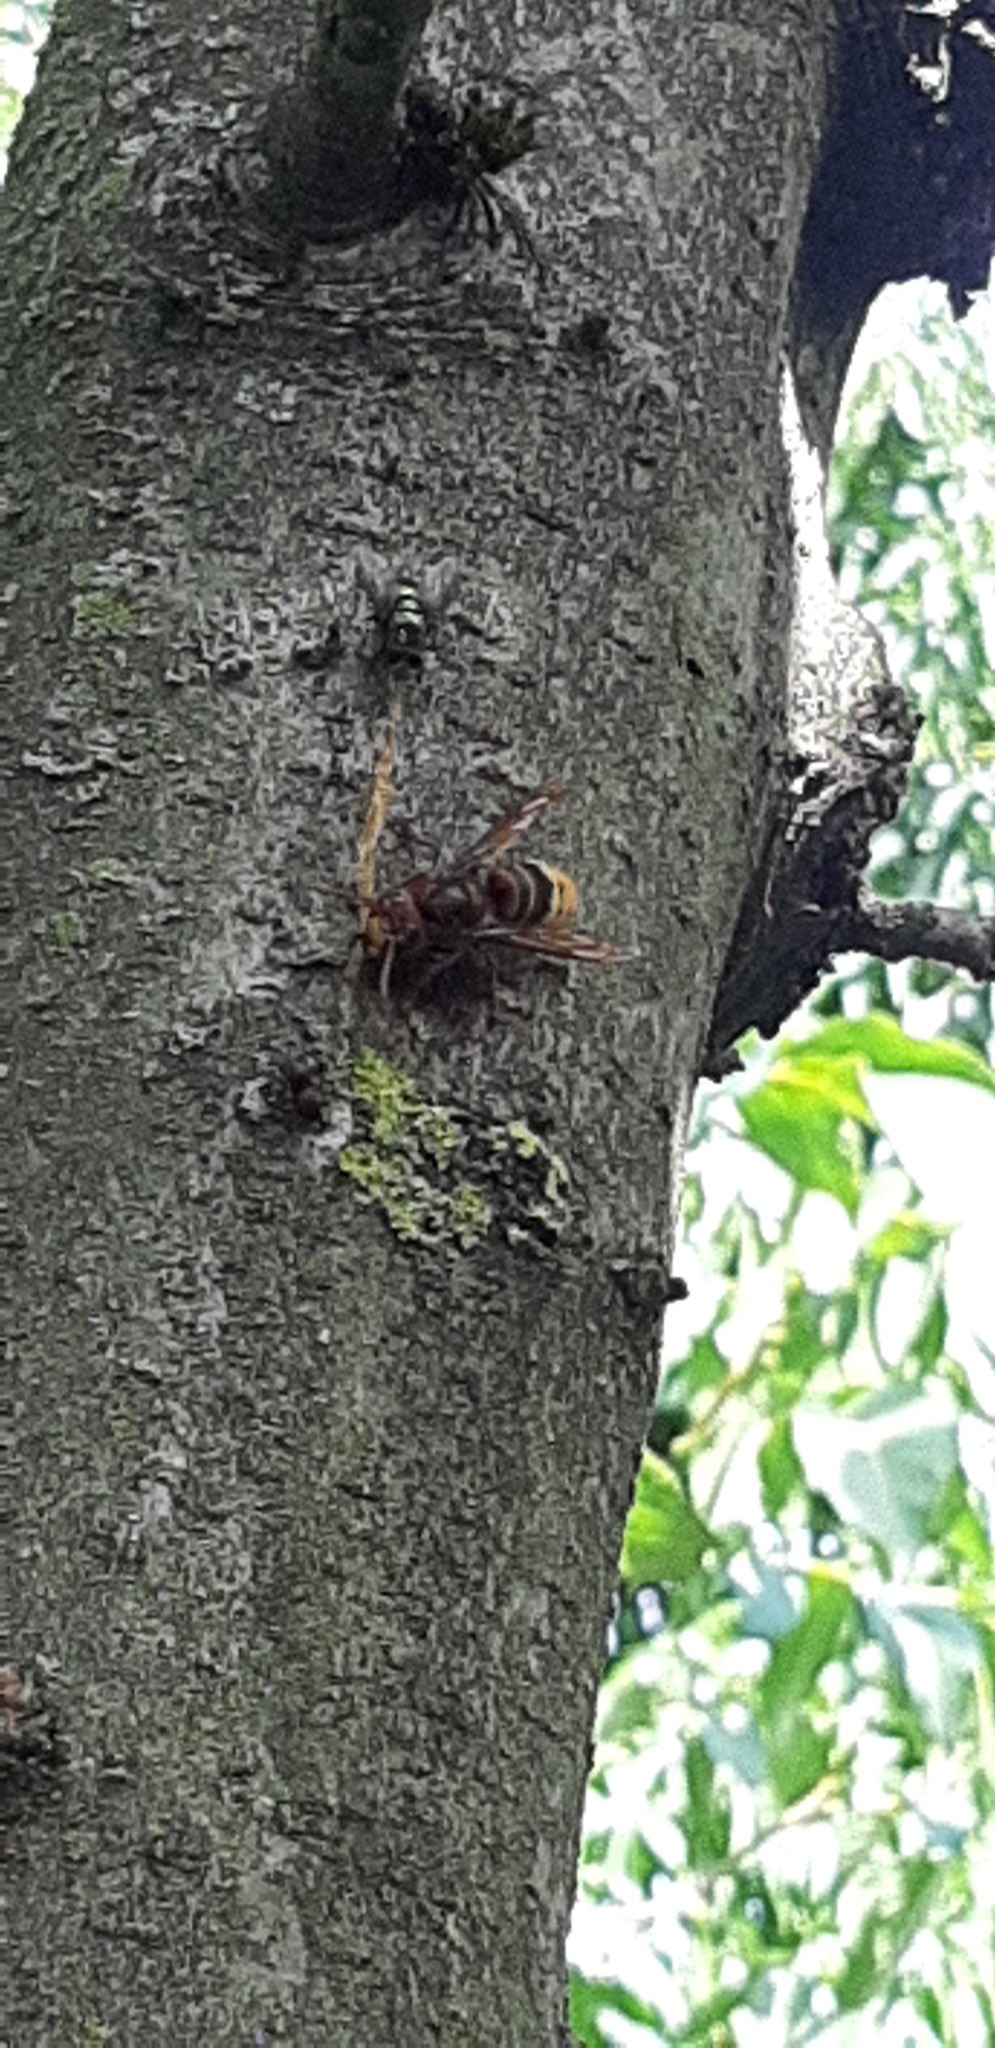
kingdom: Animalia
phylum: Arthropoda
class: Insecta
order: Hymenoptera
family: Vespidae
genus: Vespa
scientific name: Vespa crabro
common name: Hornet
